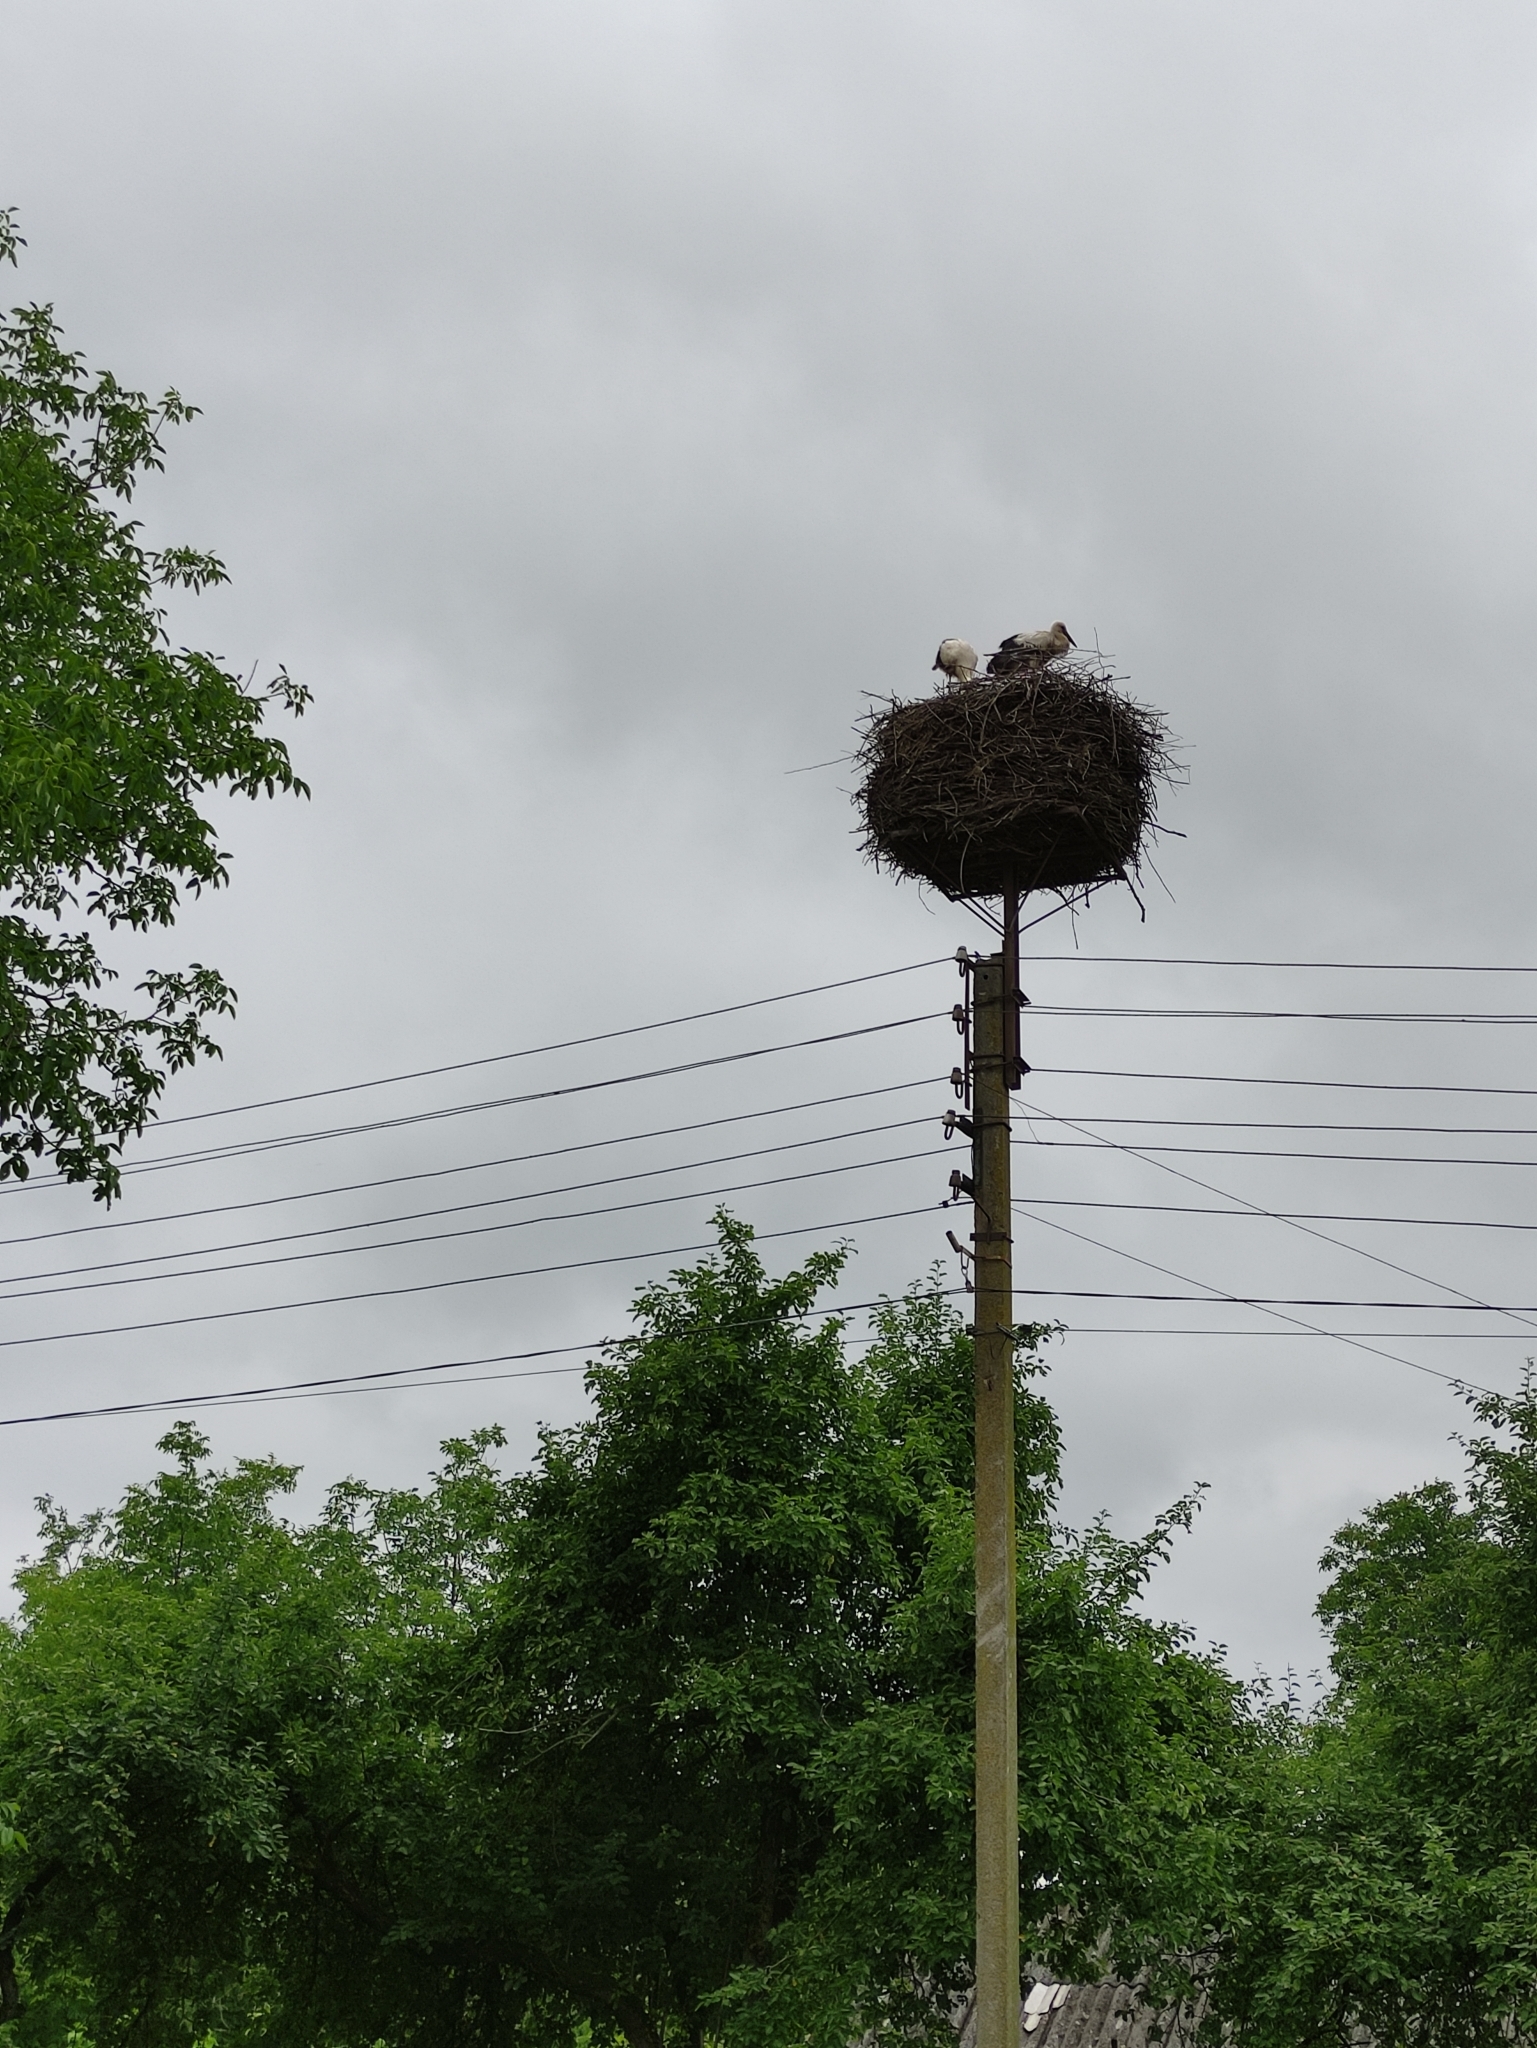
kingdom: Animalia
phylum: Chordata
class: Aves
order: Ciconiiformes
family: Ciconiidae
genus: Ciconia
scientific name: Ciconia ciconia
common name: White stork
